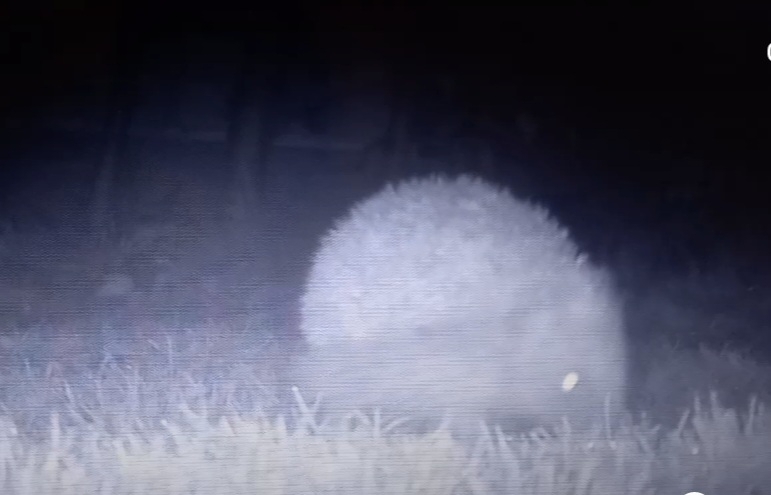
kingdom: Animalia
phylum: Chordata
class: Mammalia
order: Erinaceomorpha
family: Erinaceidae
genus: Erinaceus
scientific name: Erinaceus europaeus
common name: West european hedgehog
